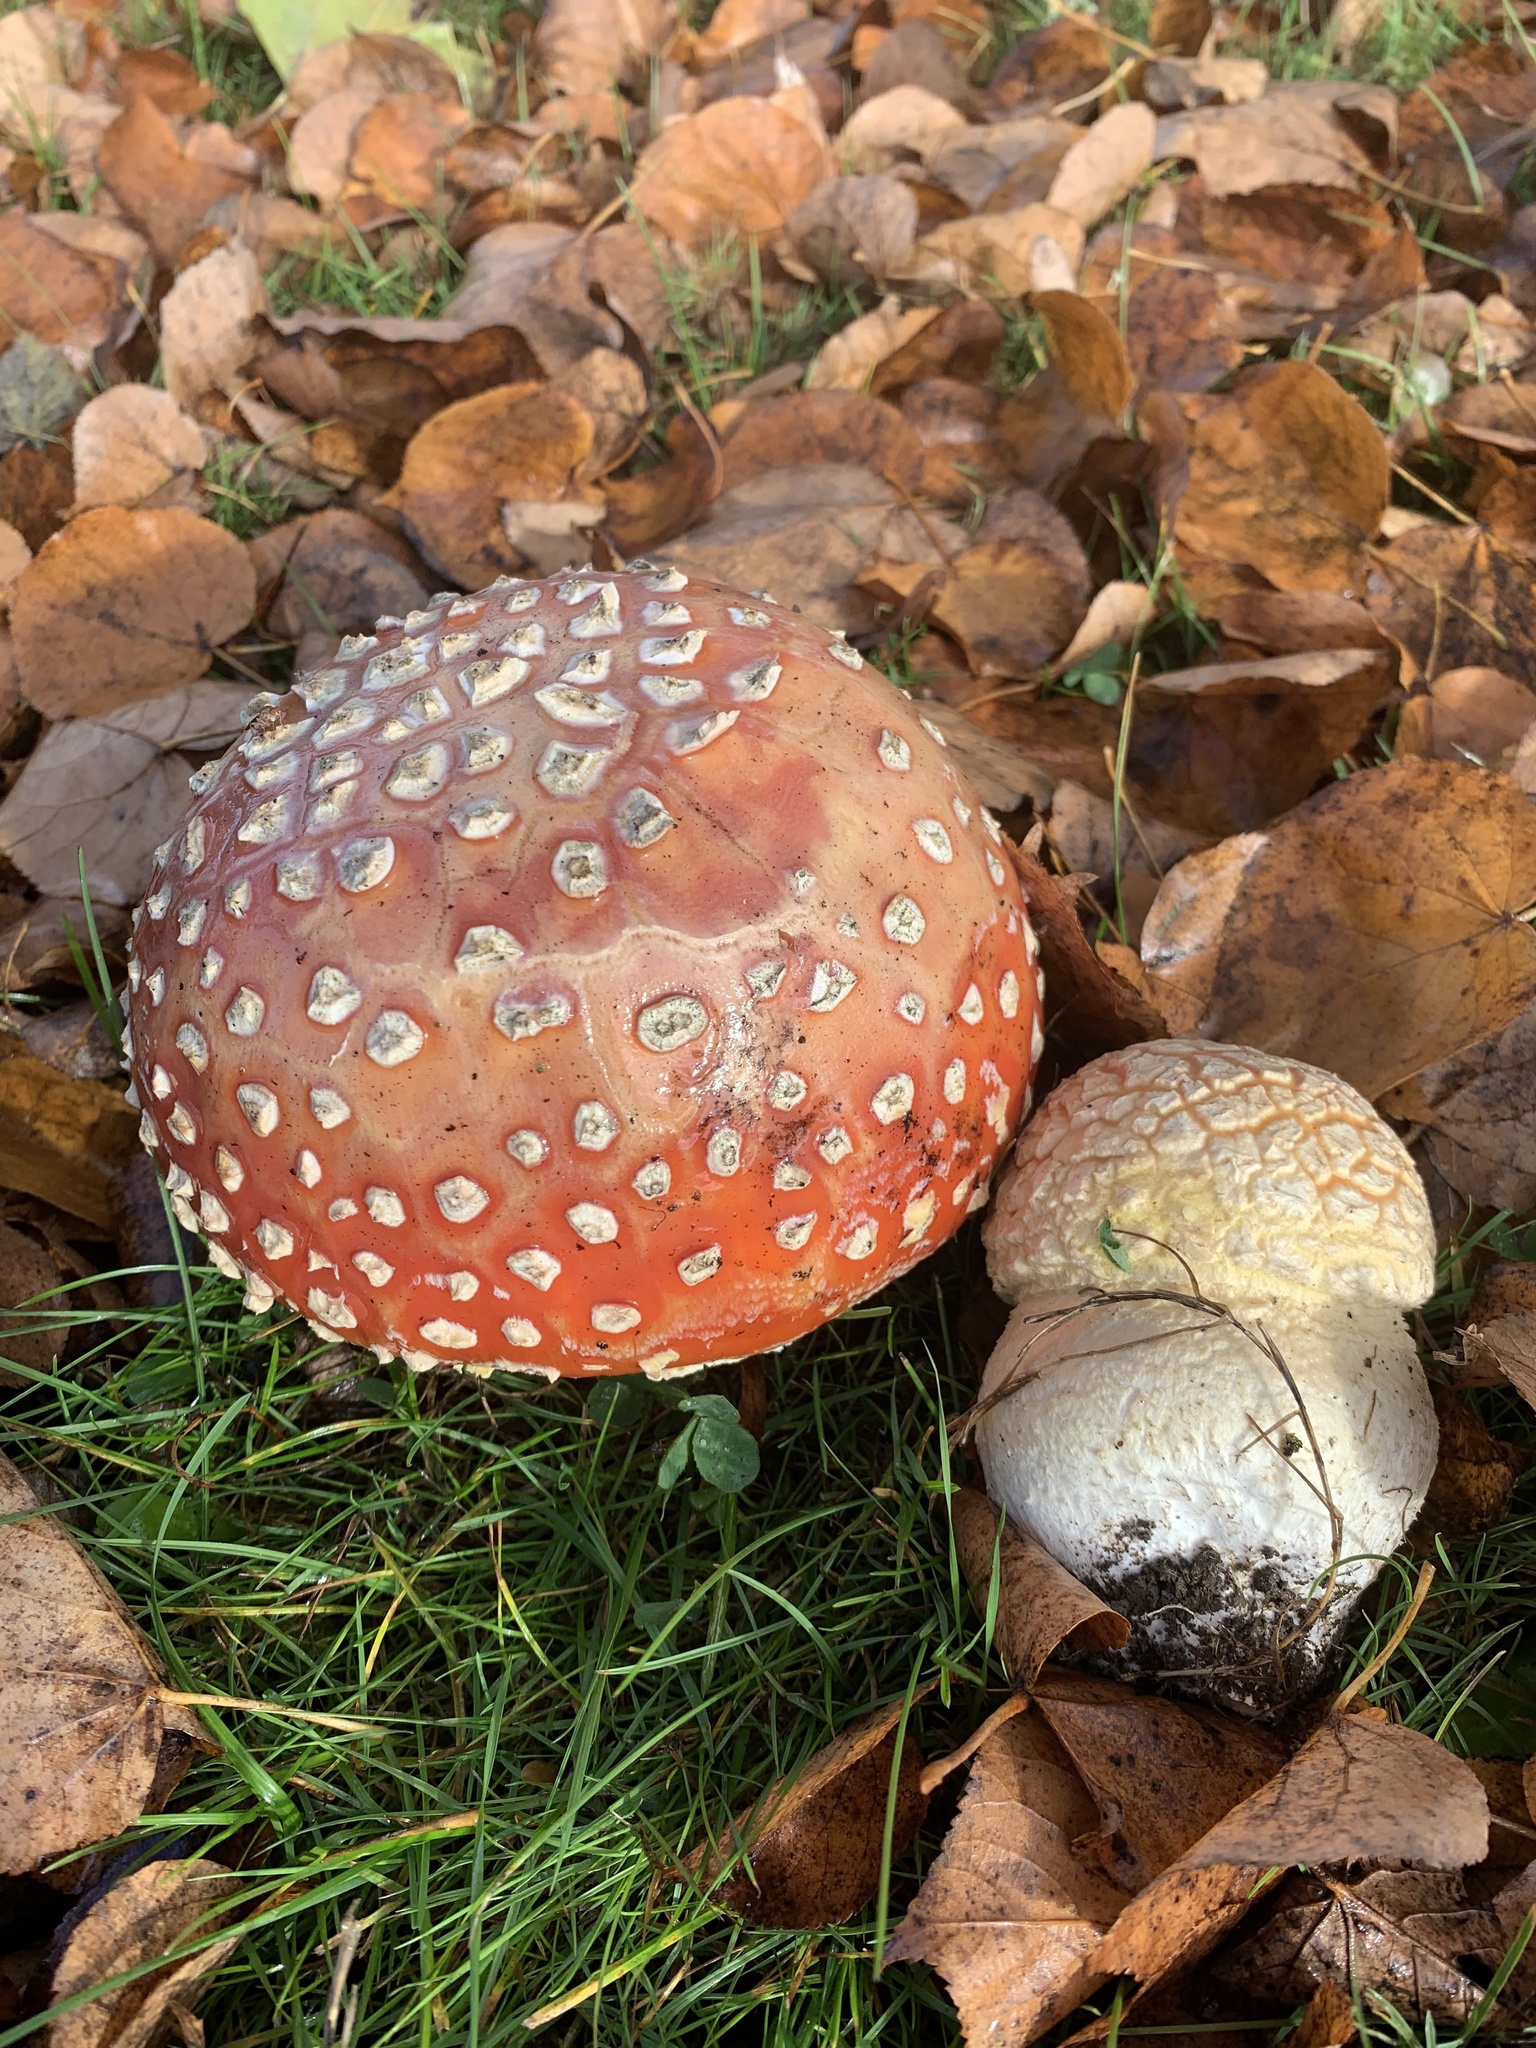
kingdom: Fungi
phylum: Basidiomycota
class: Agaricomycetes
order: Agaricales
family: Amanitaceae
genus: Amanita
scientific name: Amanita muscaria
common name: Fly agaric
